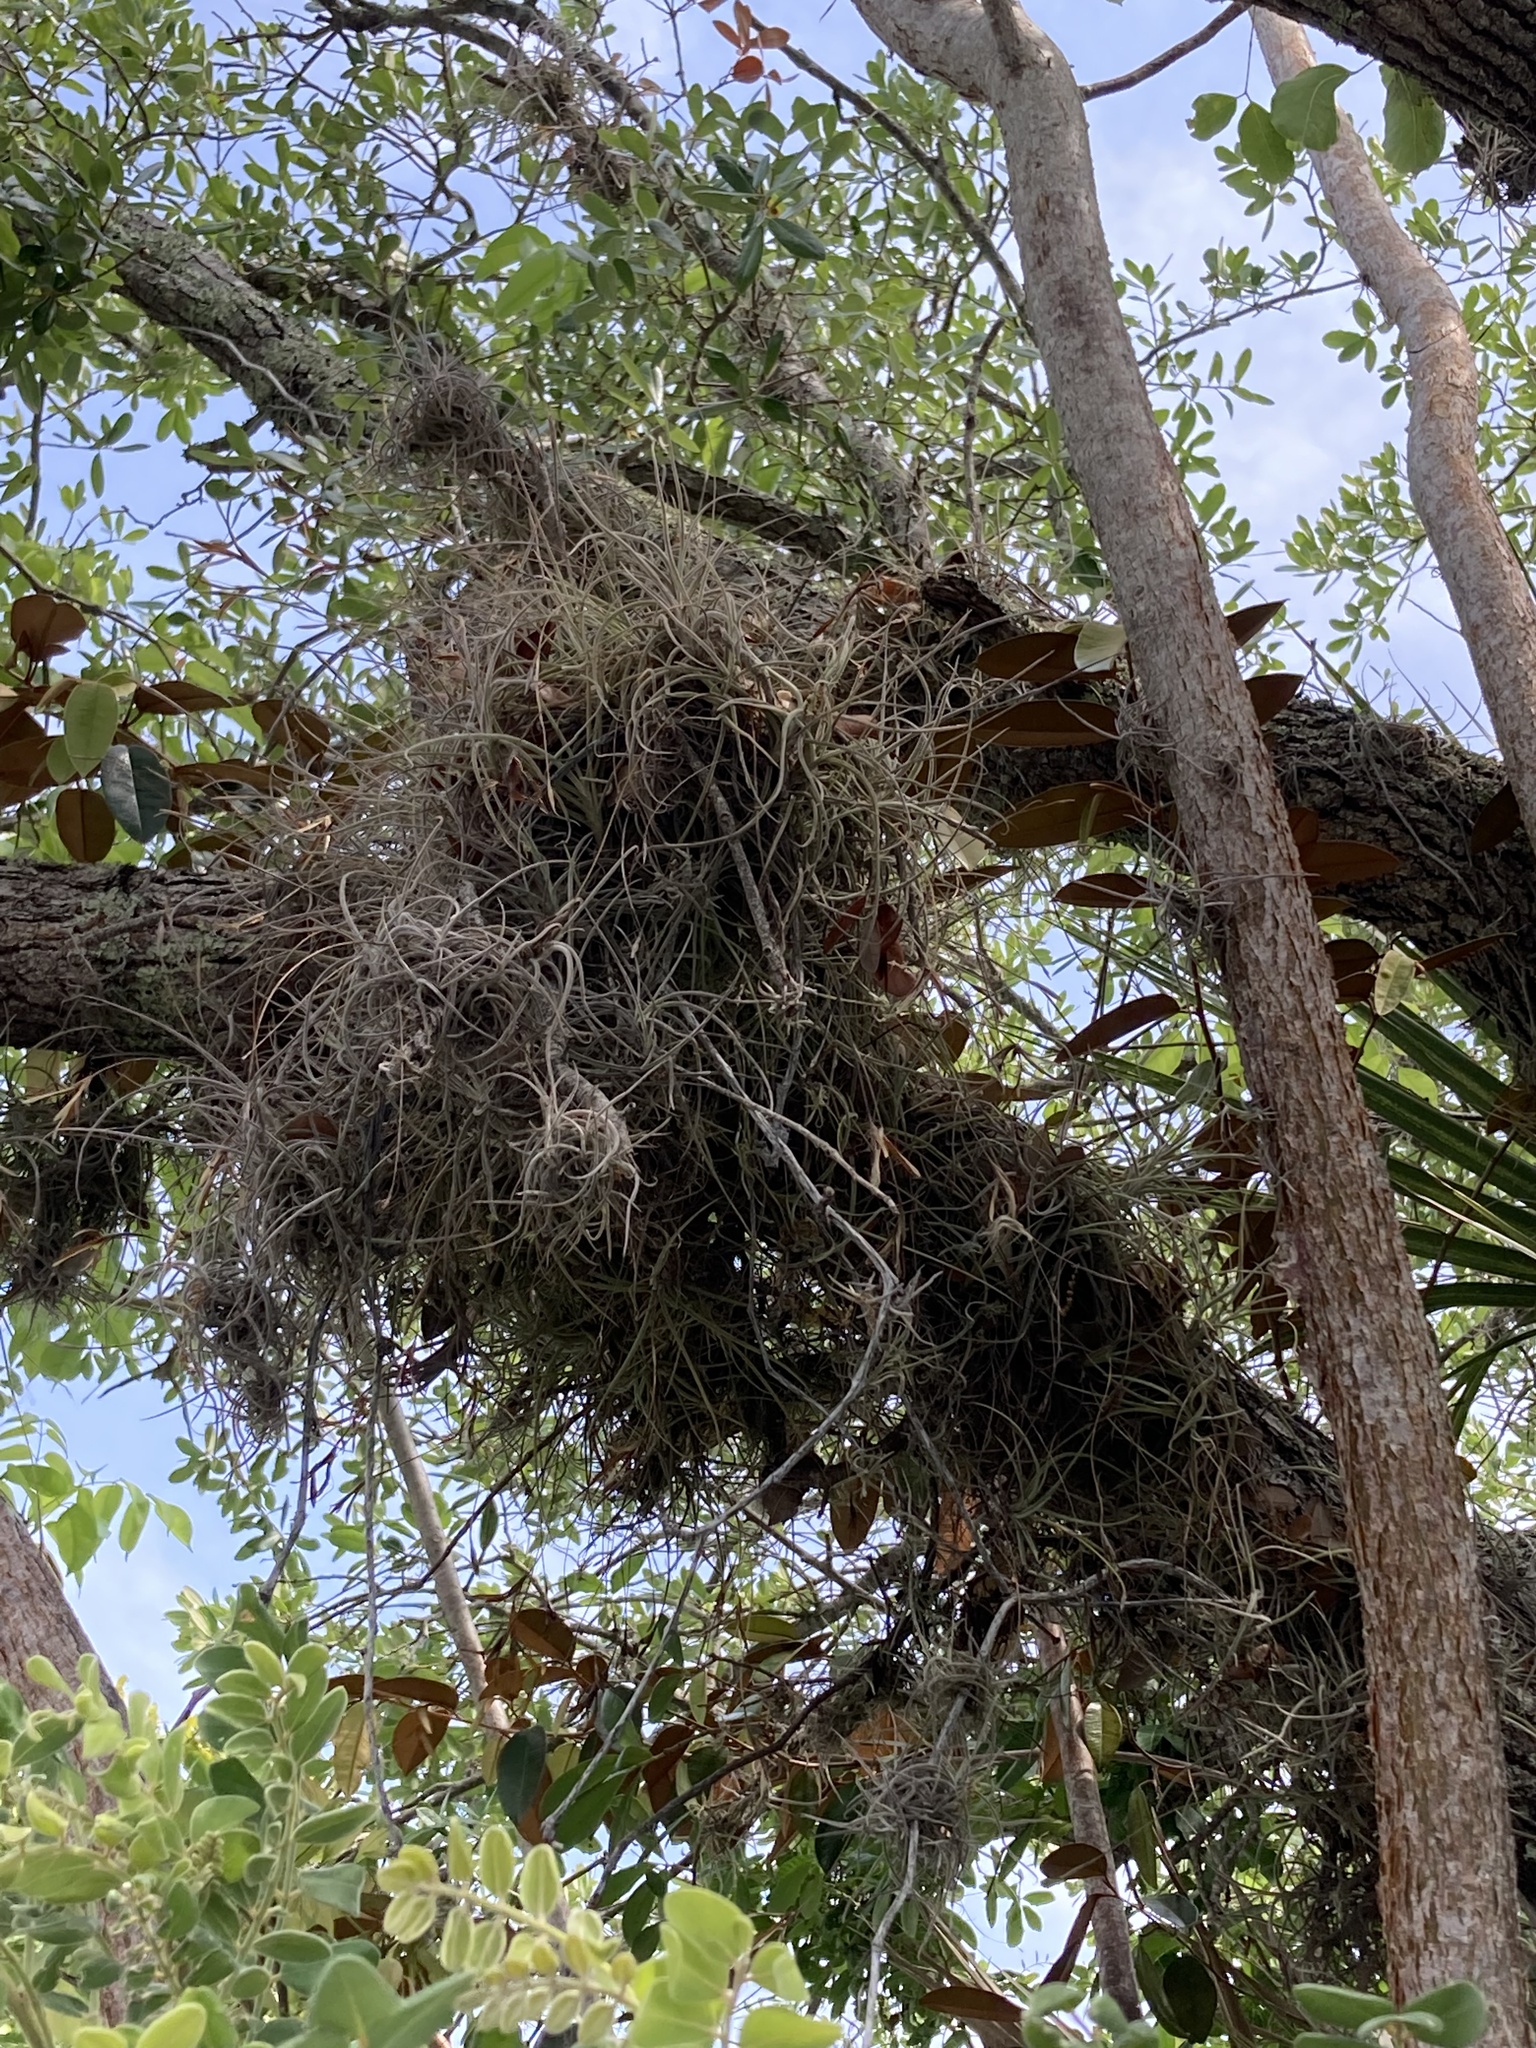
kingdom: Plantae
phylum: Tracheophyta
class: Liliopsida
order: Poales
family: Bromeliaceae
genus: Tillandsia
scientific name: Tillandsia recurvata
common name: Small ballmoss
